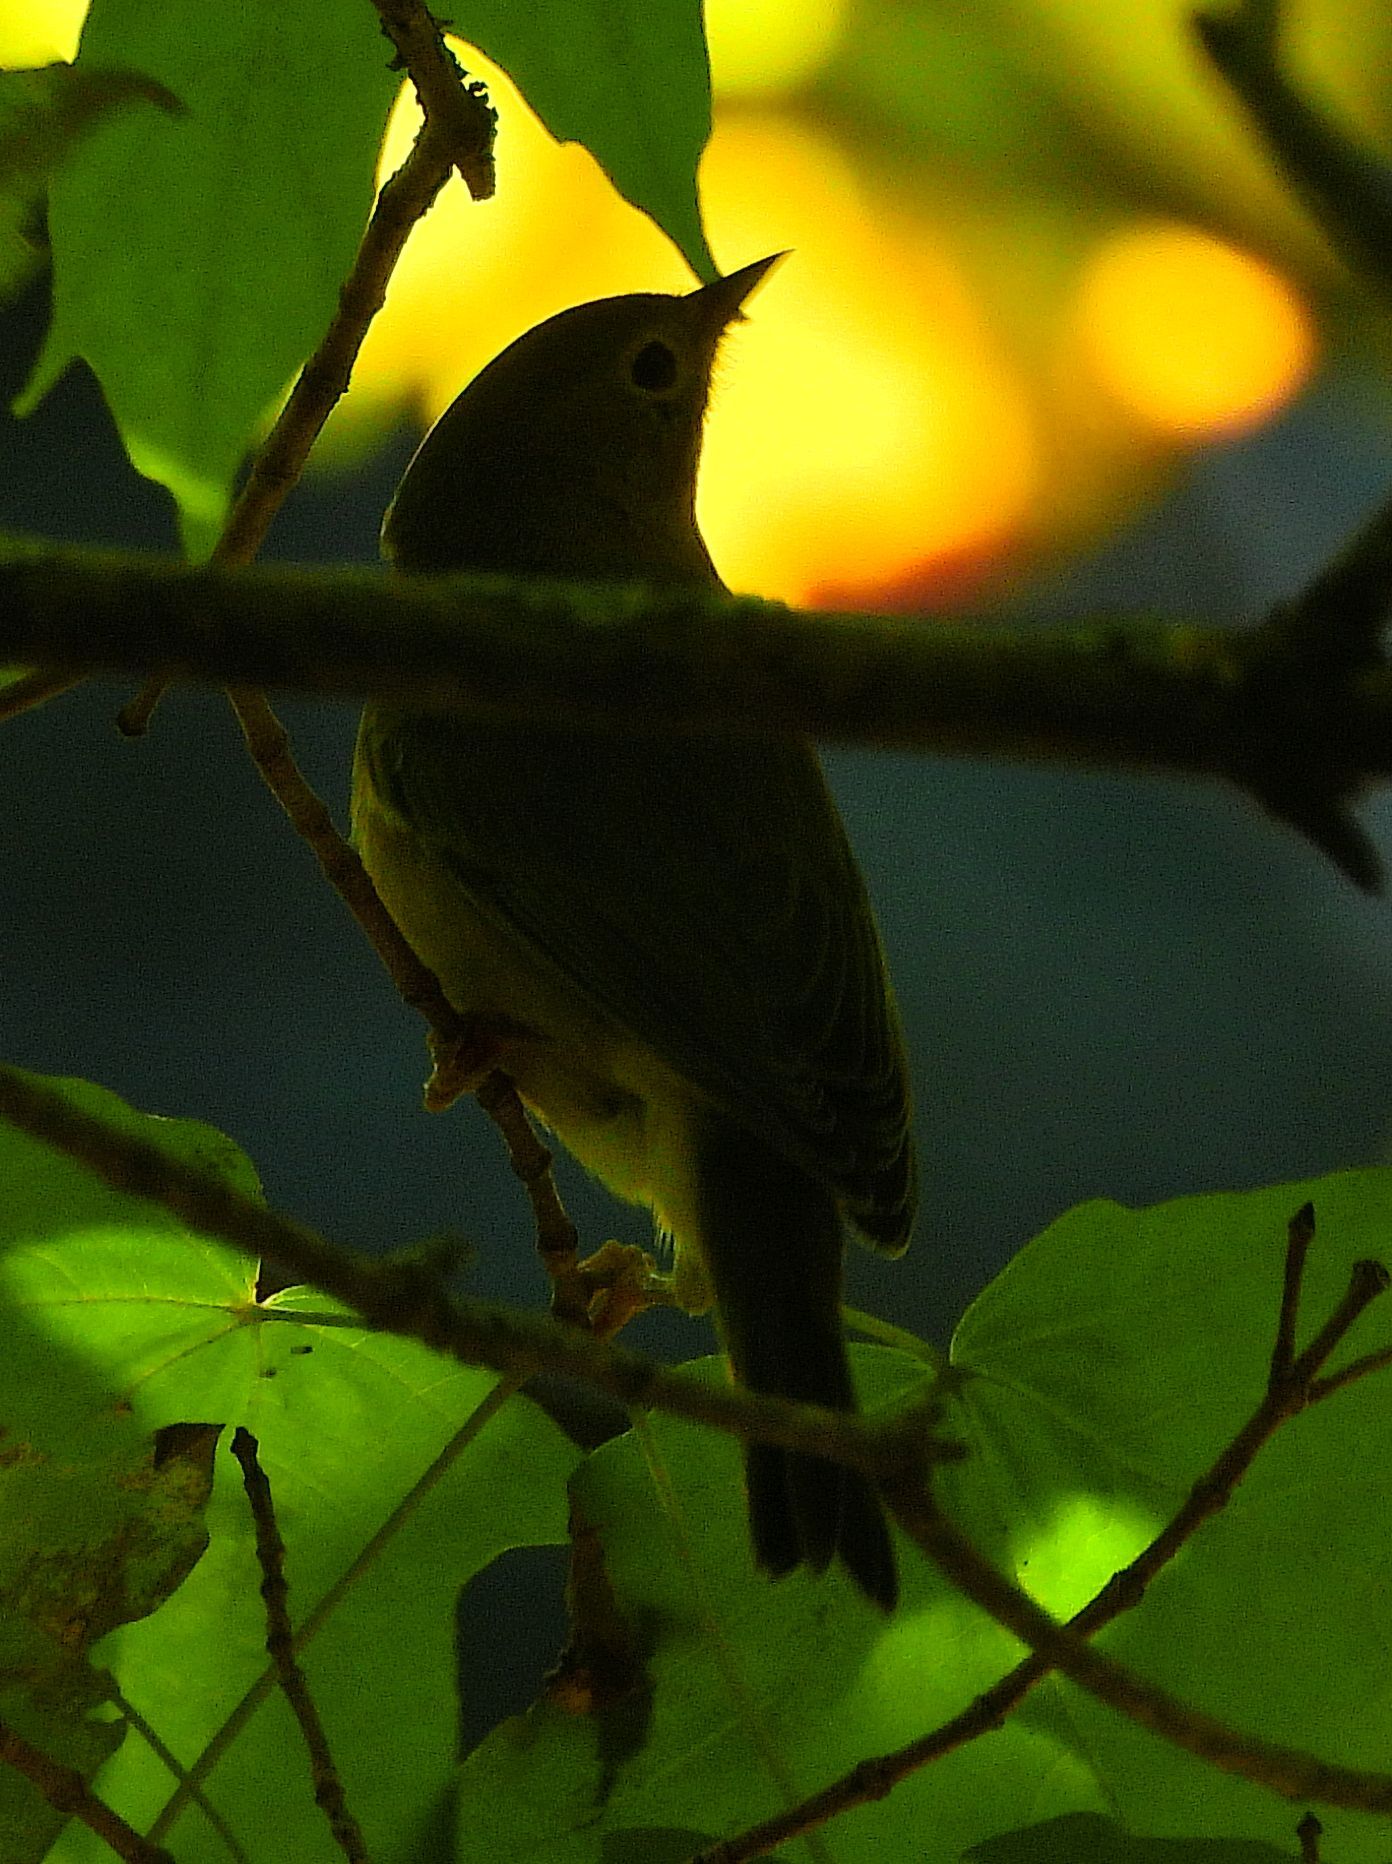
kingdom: Animalia
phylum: Chordata
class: Aves
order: Passeriformes
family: Parulidae
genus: Leiothlypis
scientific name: Leiothlypis ruficapilla
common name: Nashville warbler
